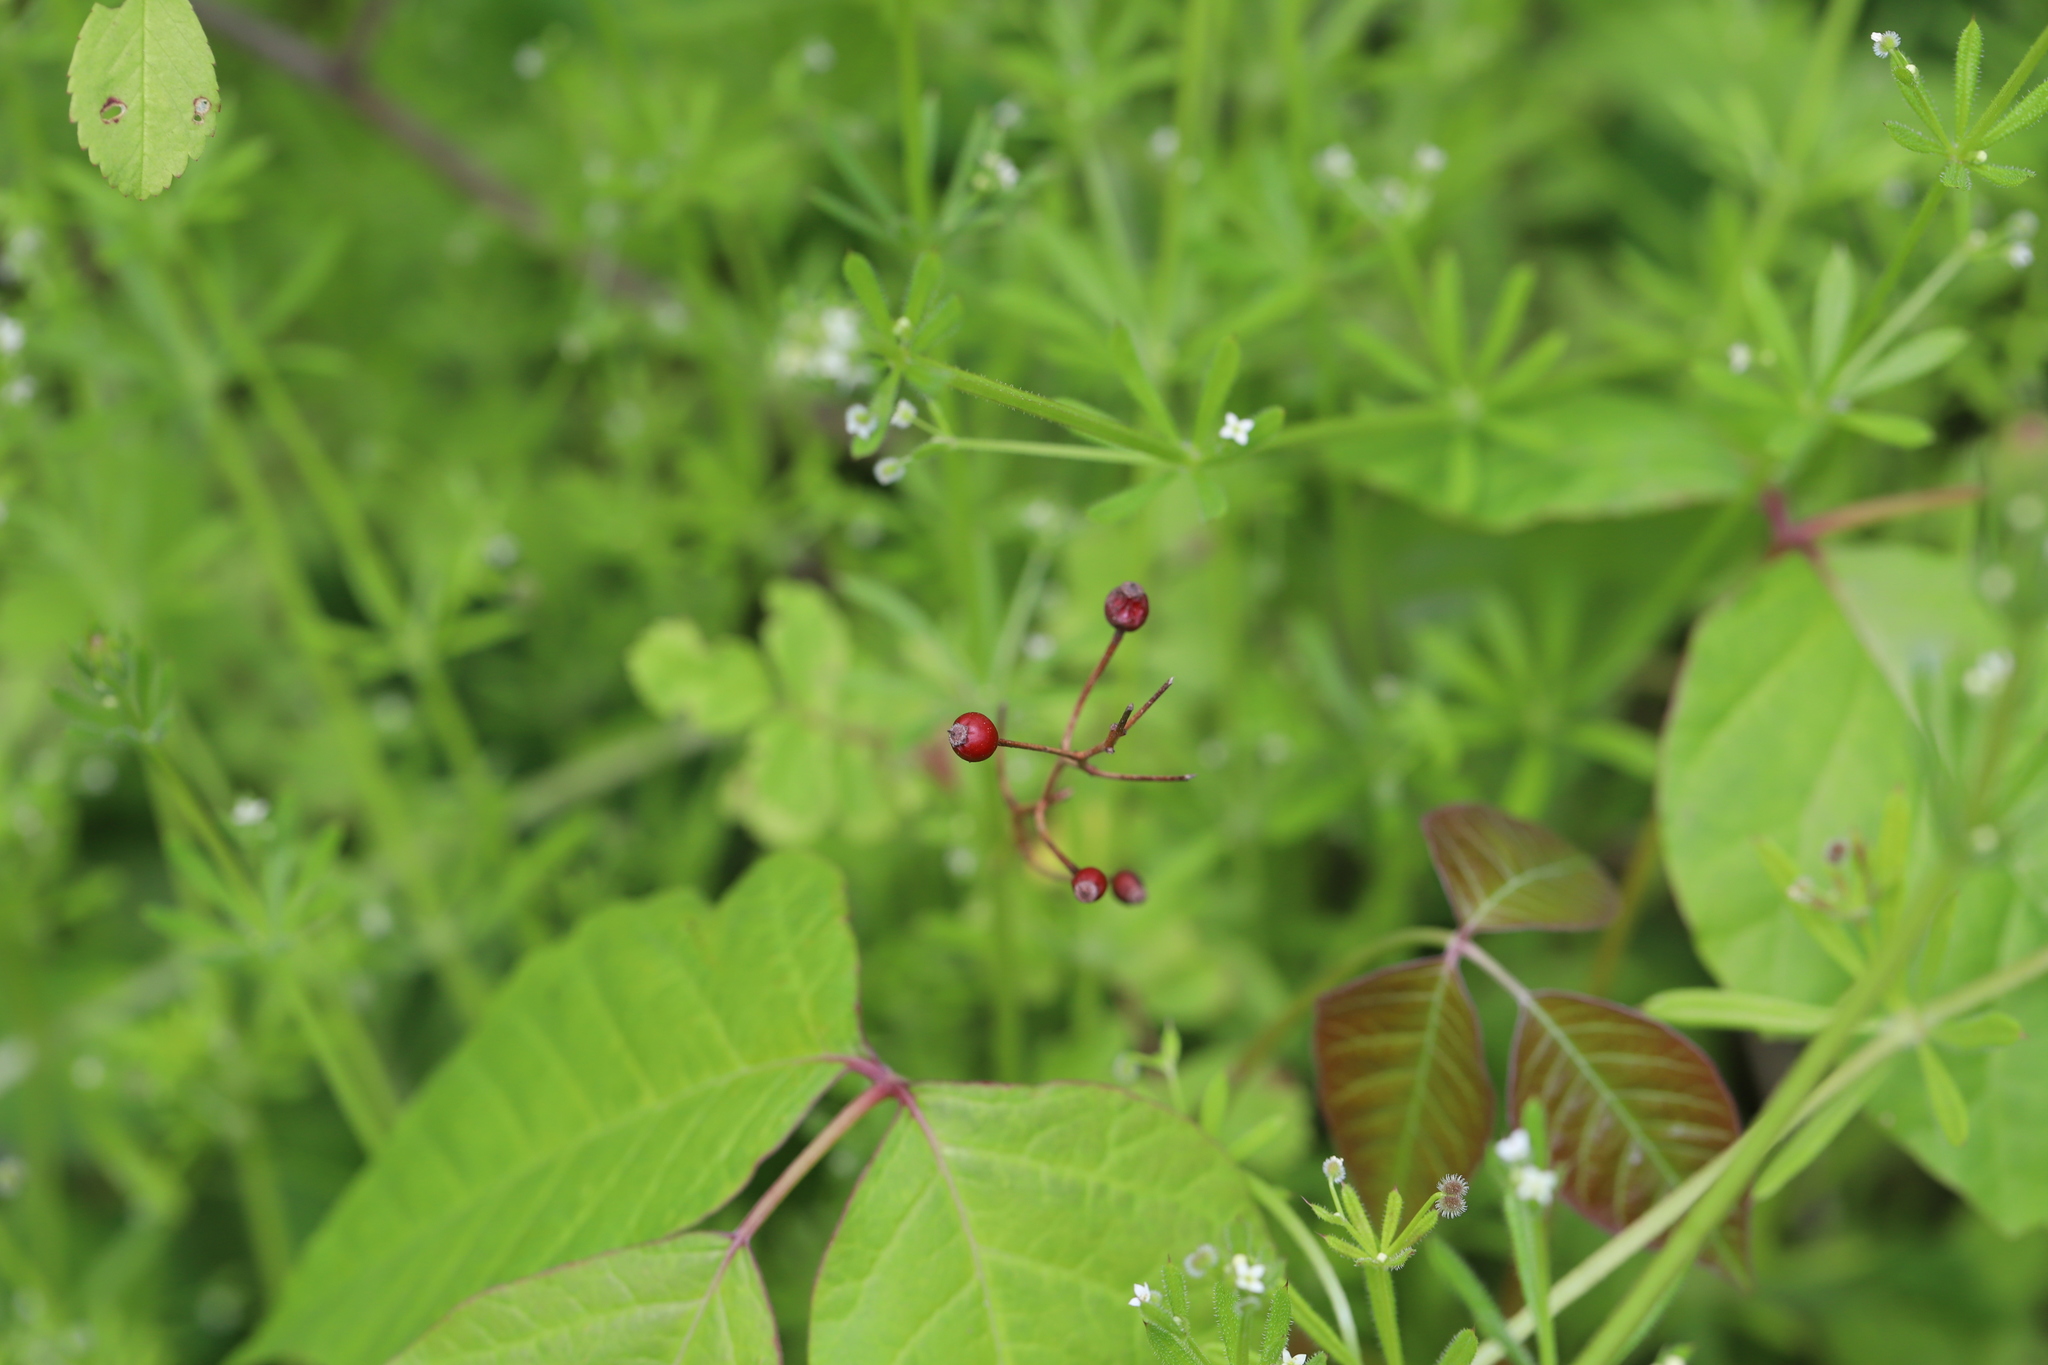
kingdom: Plantae
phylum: Tracheophyta
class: Magnoliopsida
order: Rosales
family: Rosaceae
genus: Rosa
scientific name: Rosa multiflora
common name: Multiflora rose
